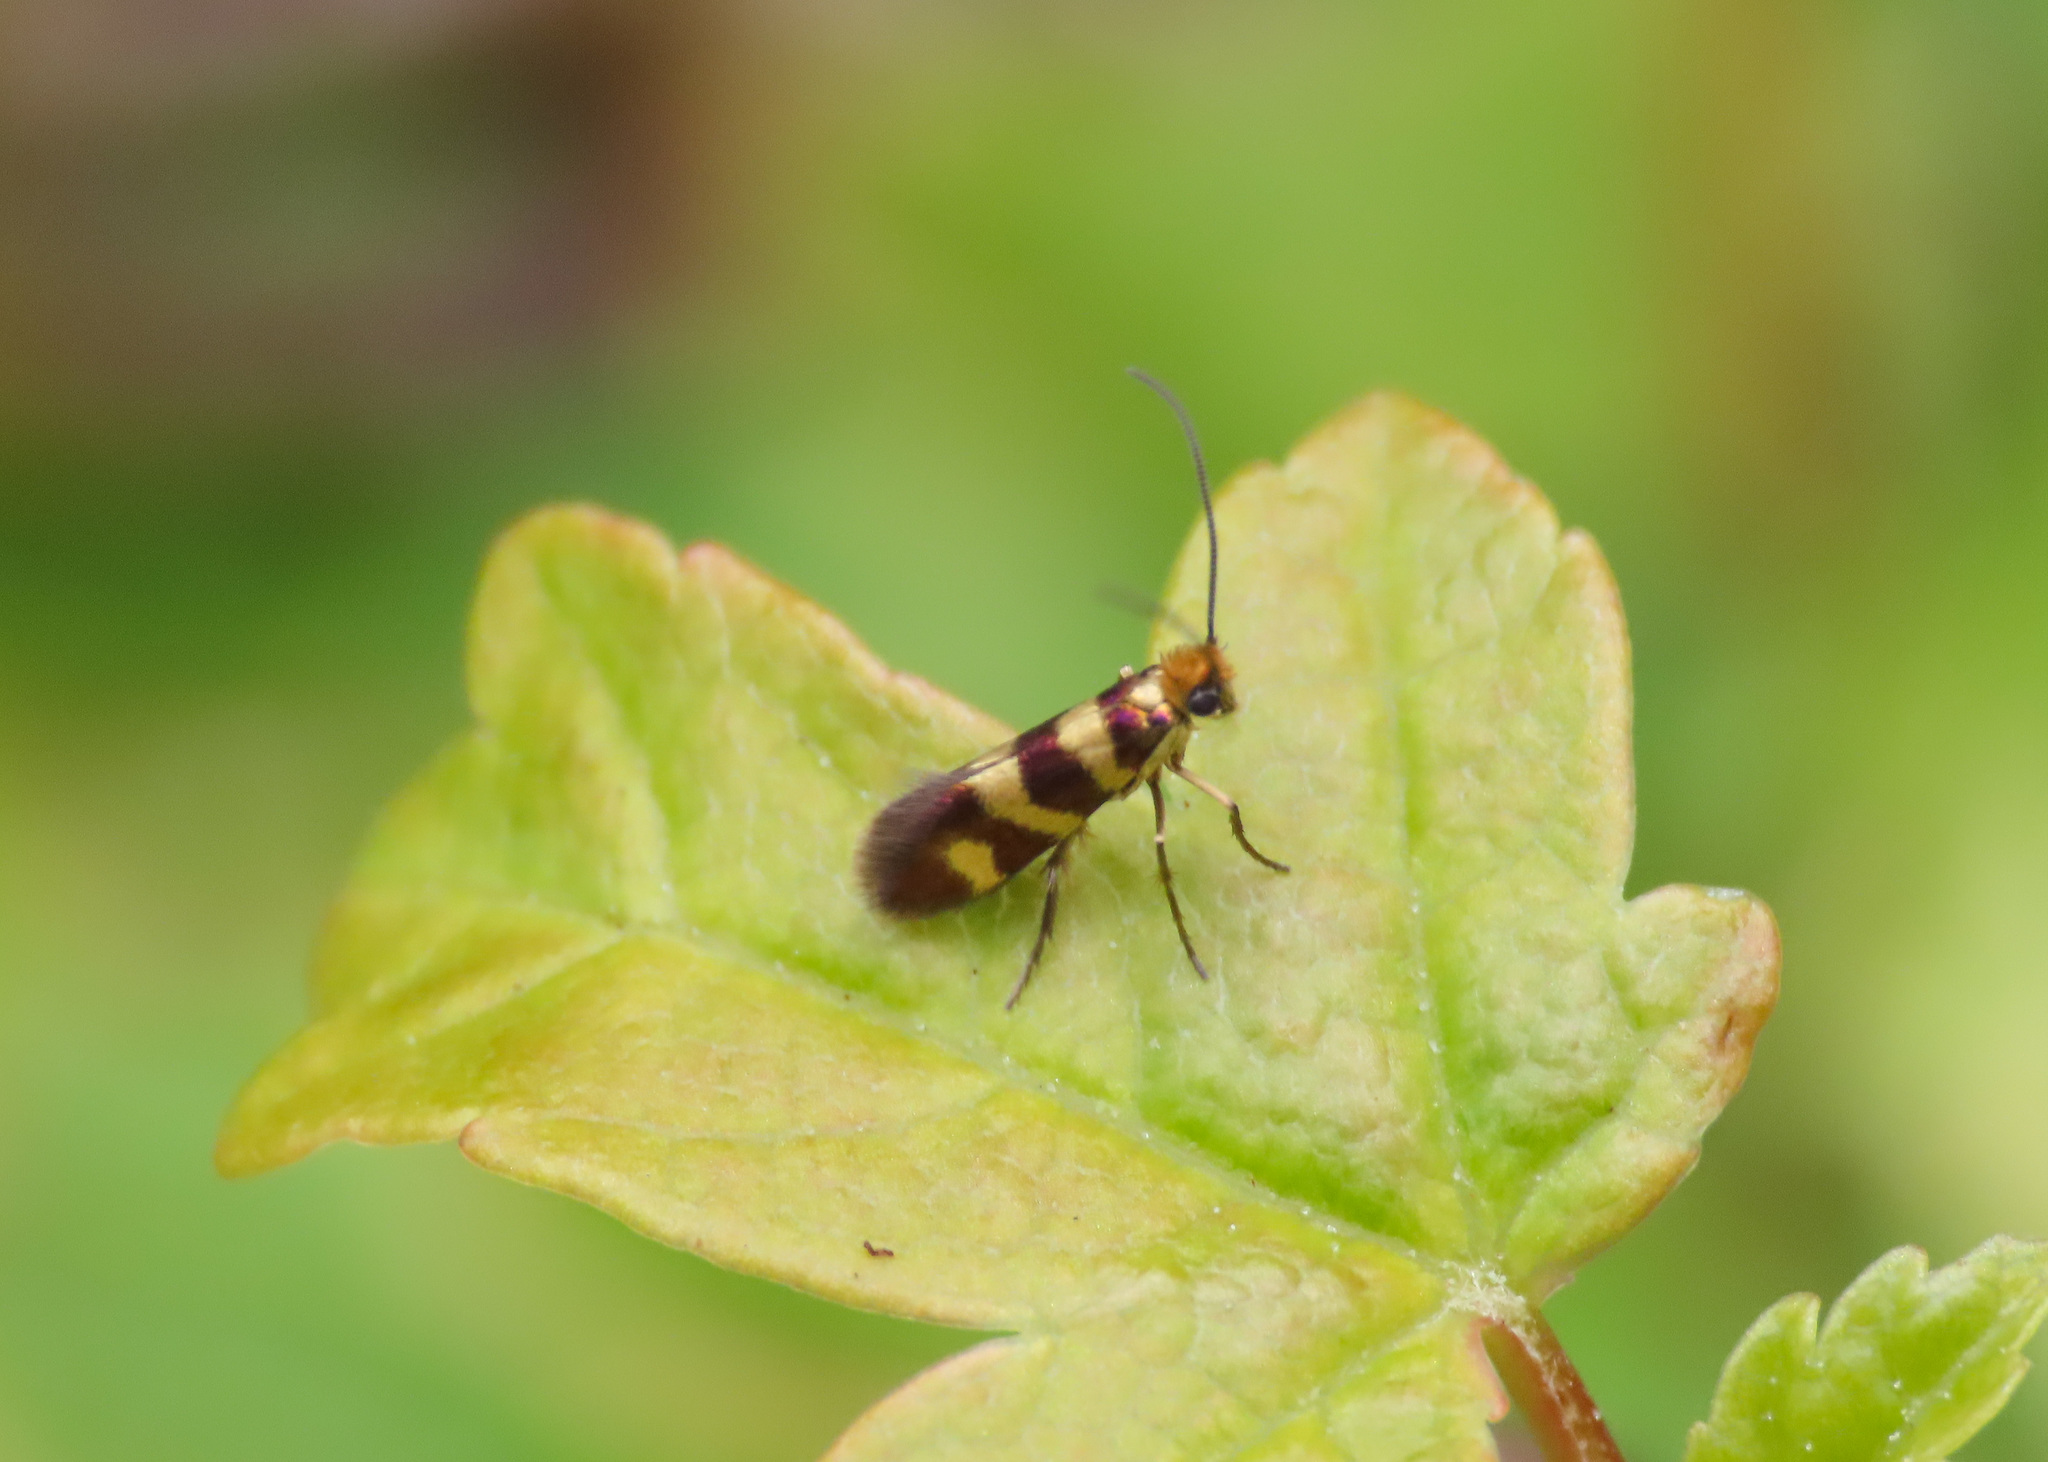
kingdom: Animalia
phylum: Arthropoda
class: Insecta
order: Lepidoptera
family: Micropterigidae
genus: Micropterix
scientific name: Micropterix cassinella
